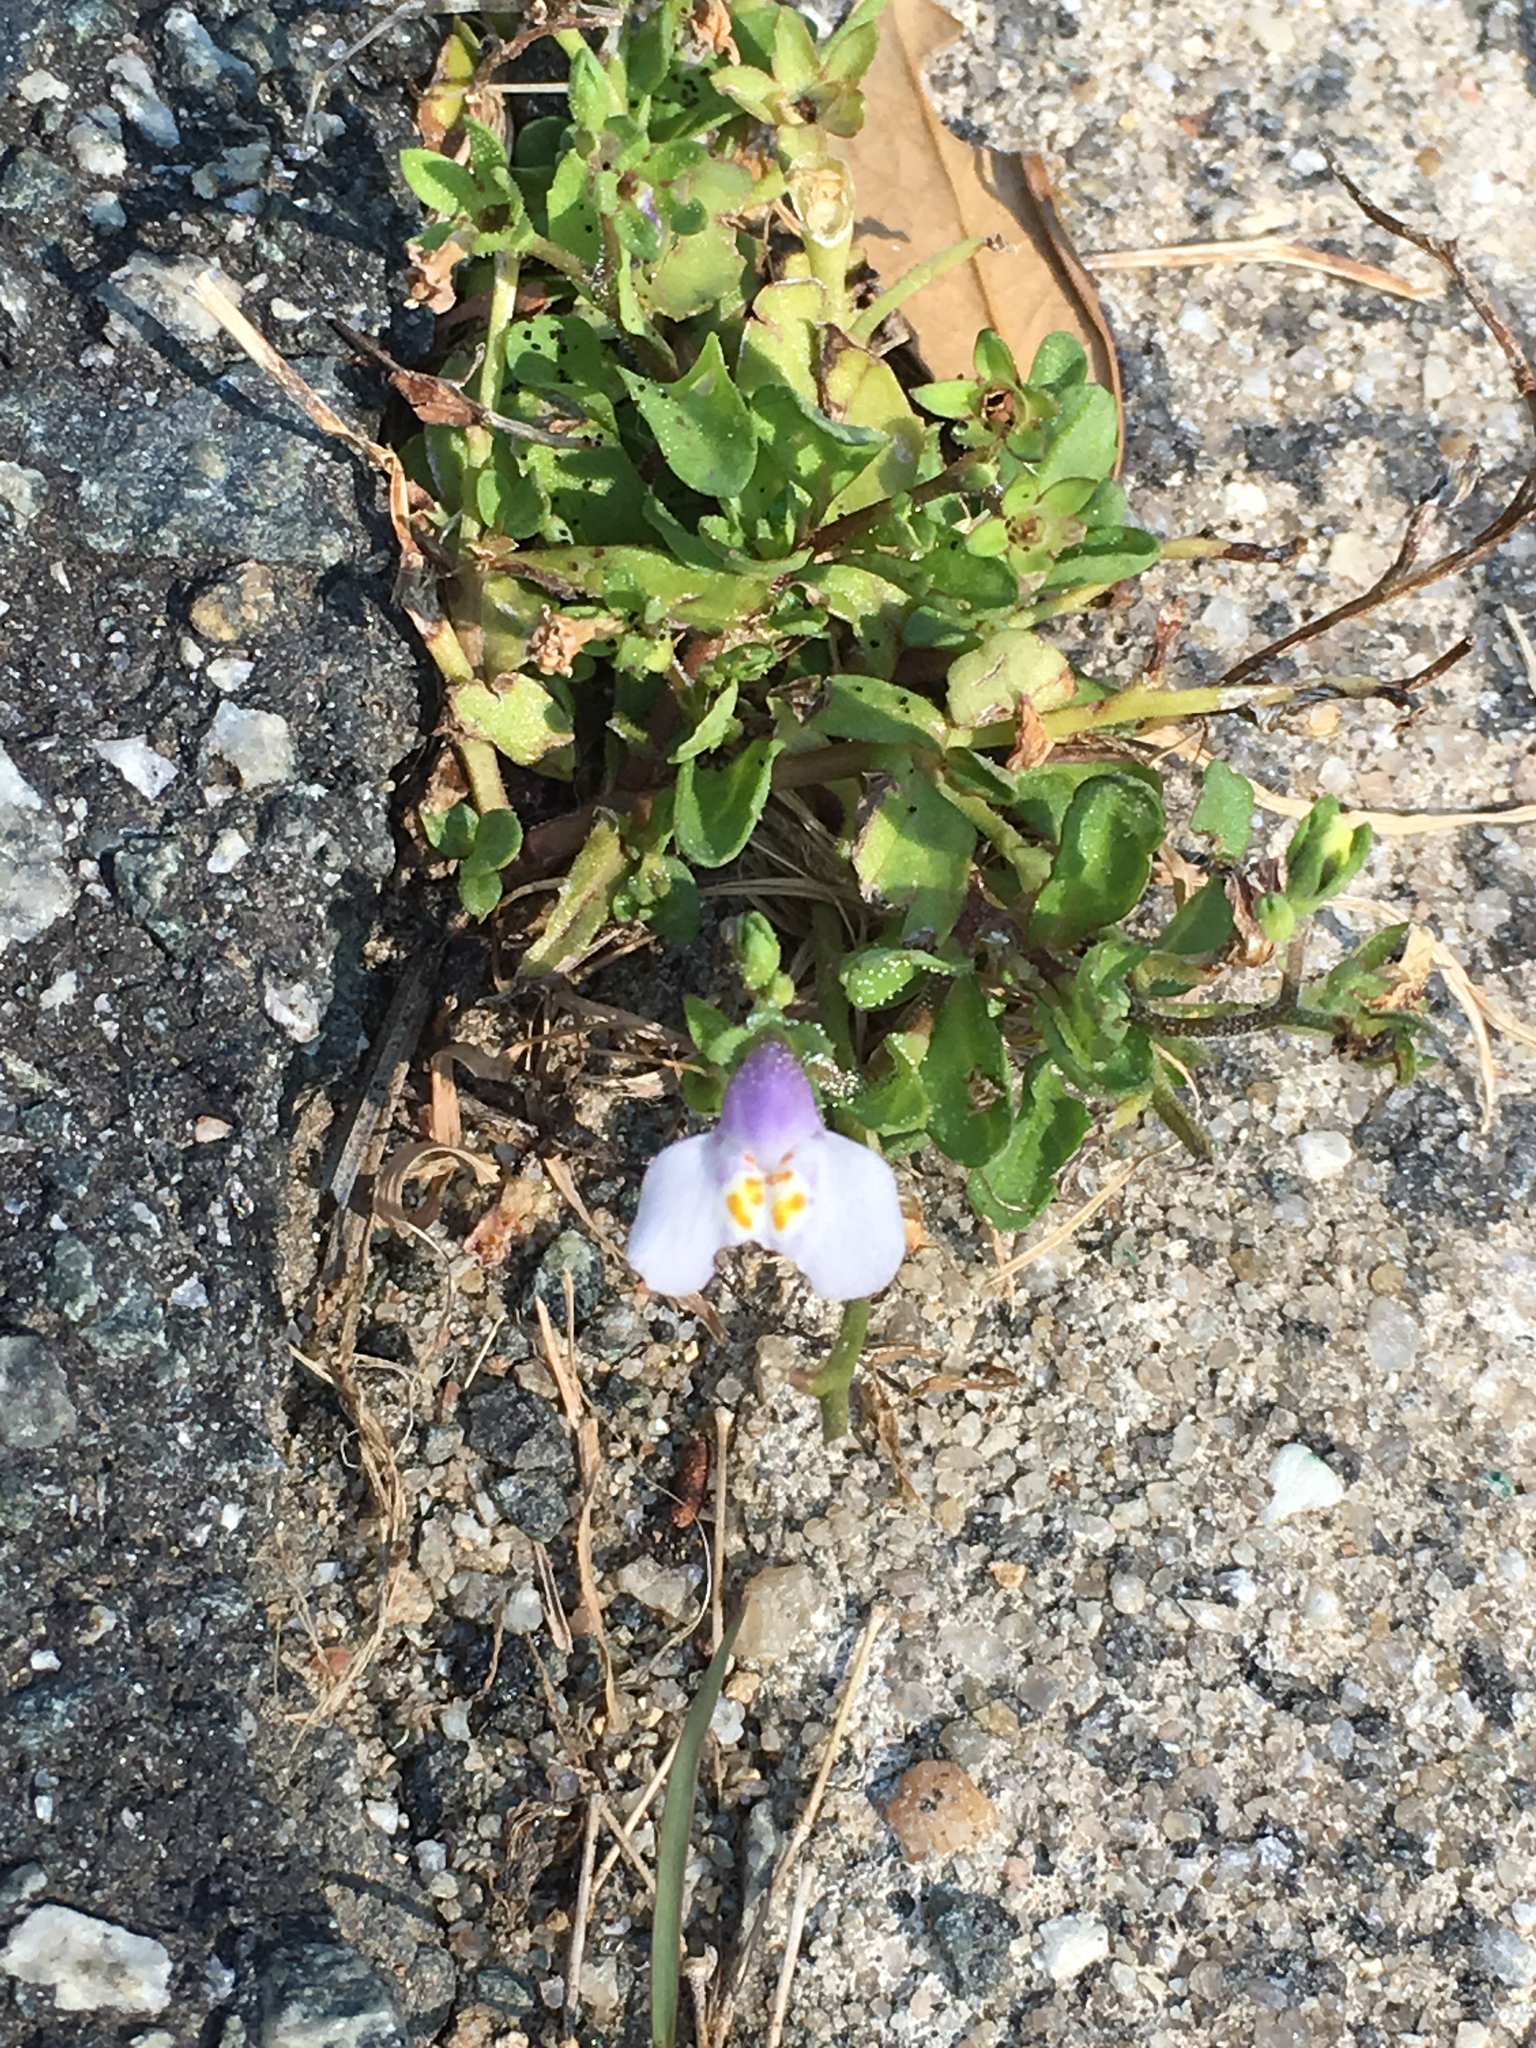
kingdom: Plantae
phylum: Tracheophyta
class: Magnoliopsida
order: Lamiales
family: Mazaceae
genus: Mazus
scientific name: Mazus pumilus
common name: Japanese mazus
